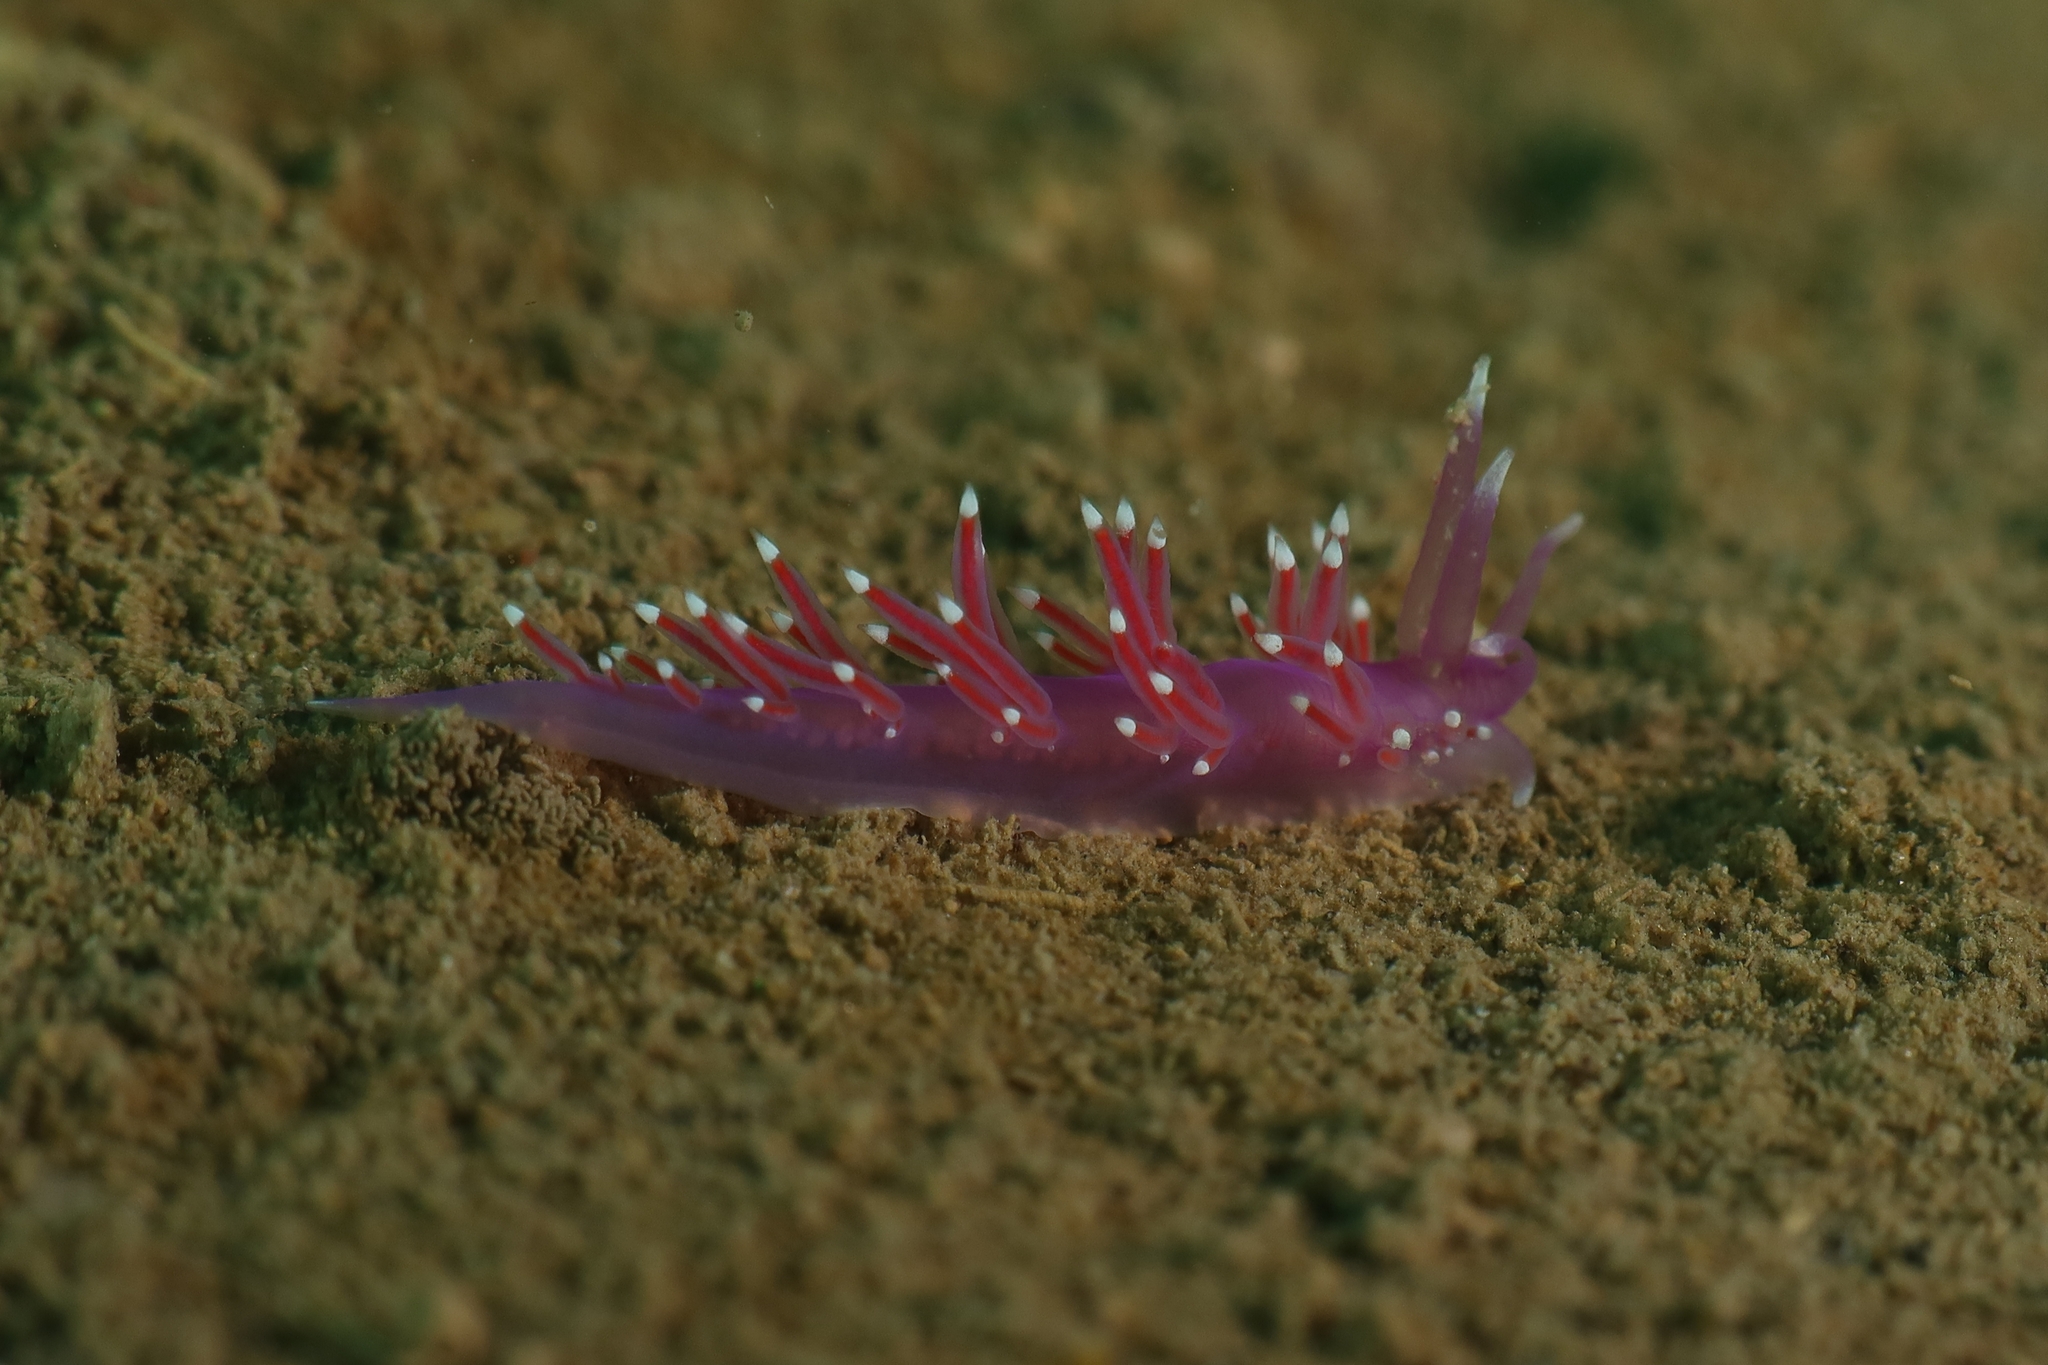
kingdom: Animalia
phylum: Mollusca
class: Gastropoda
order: Nudibranchia
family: Flabellinidae
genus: Edmundsella
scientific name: Edmundsella pedata
